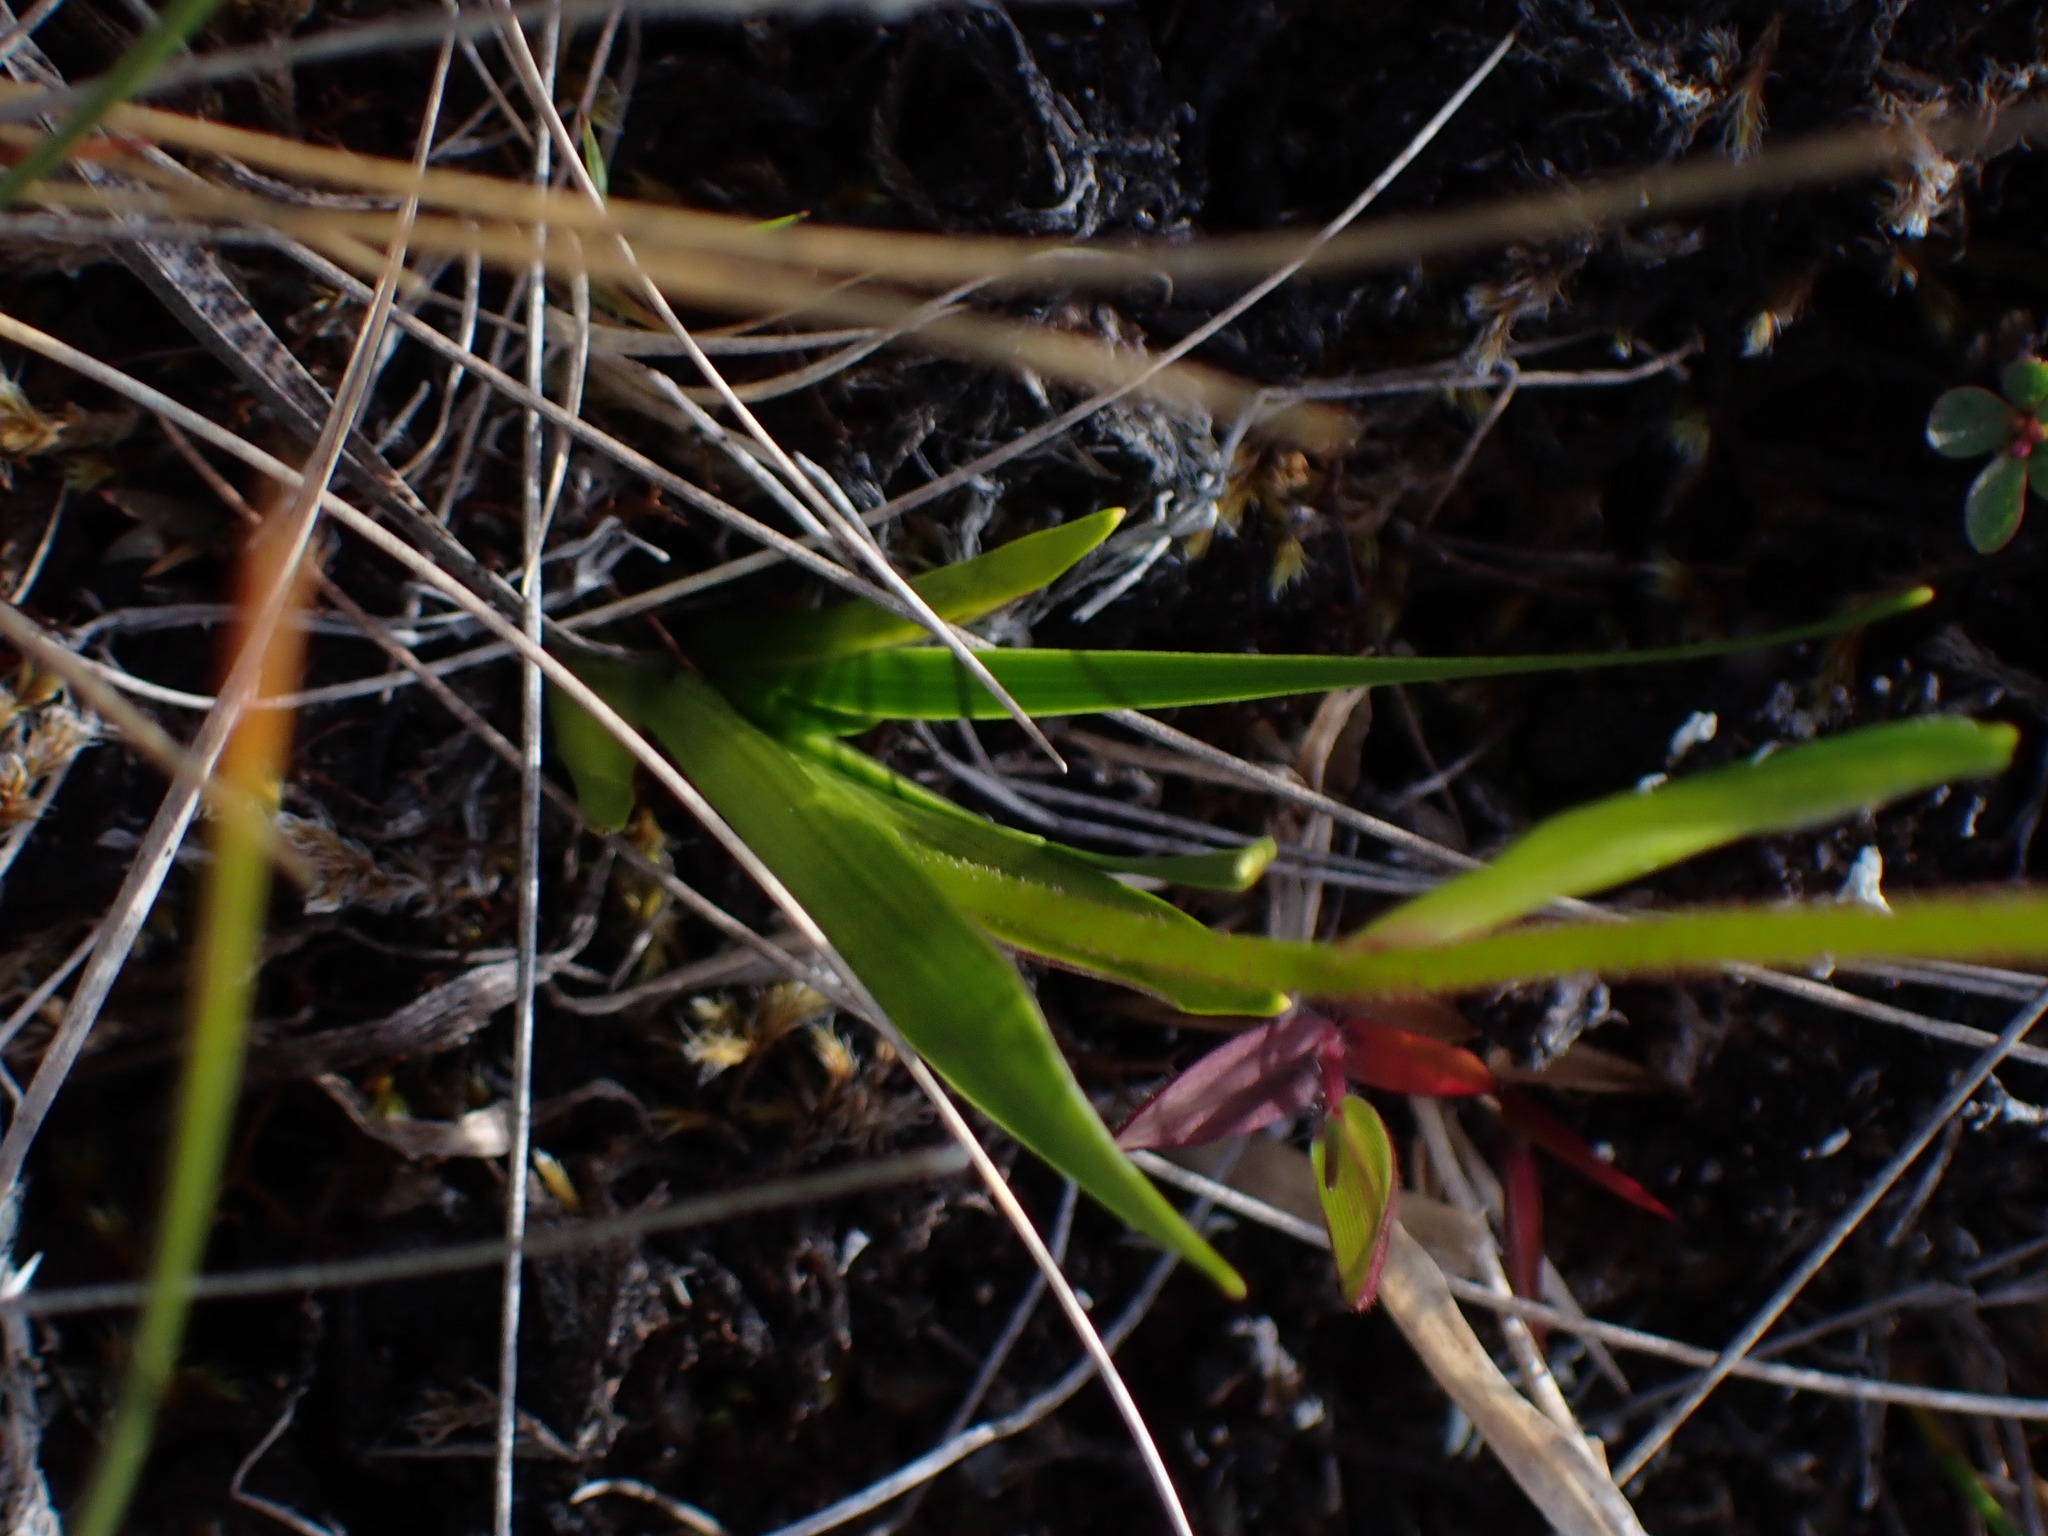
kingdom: Plantae
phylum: Tracheophyta
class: Liliopsida
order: Alismatales
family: Tofieldiaceae
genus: Triantha
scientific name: Triantha glutinosa
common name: Glutinous tofieldia
